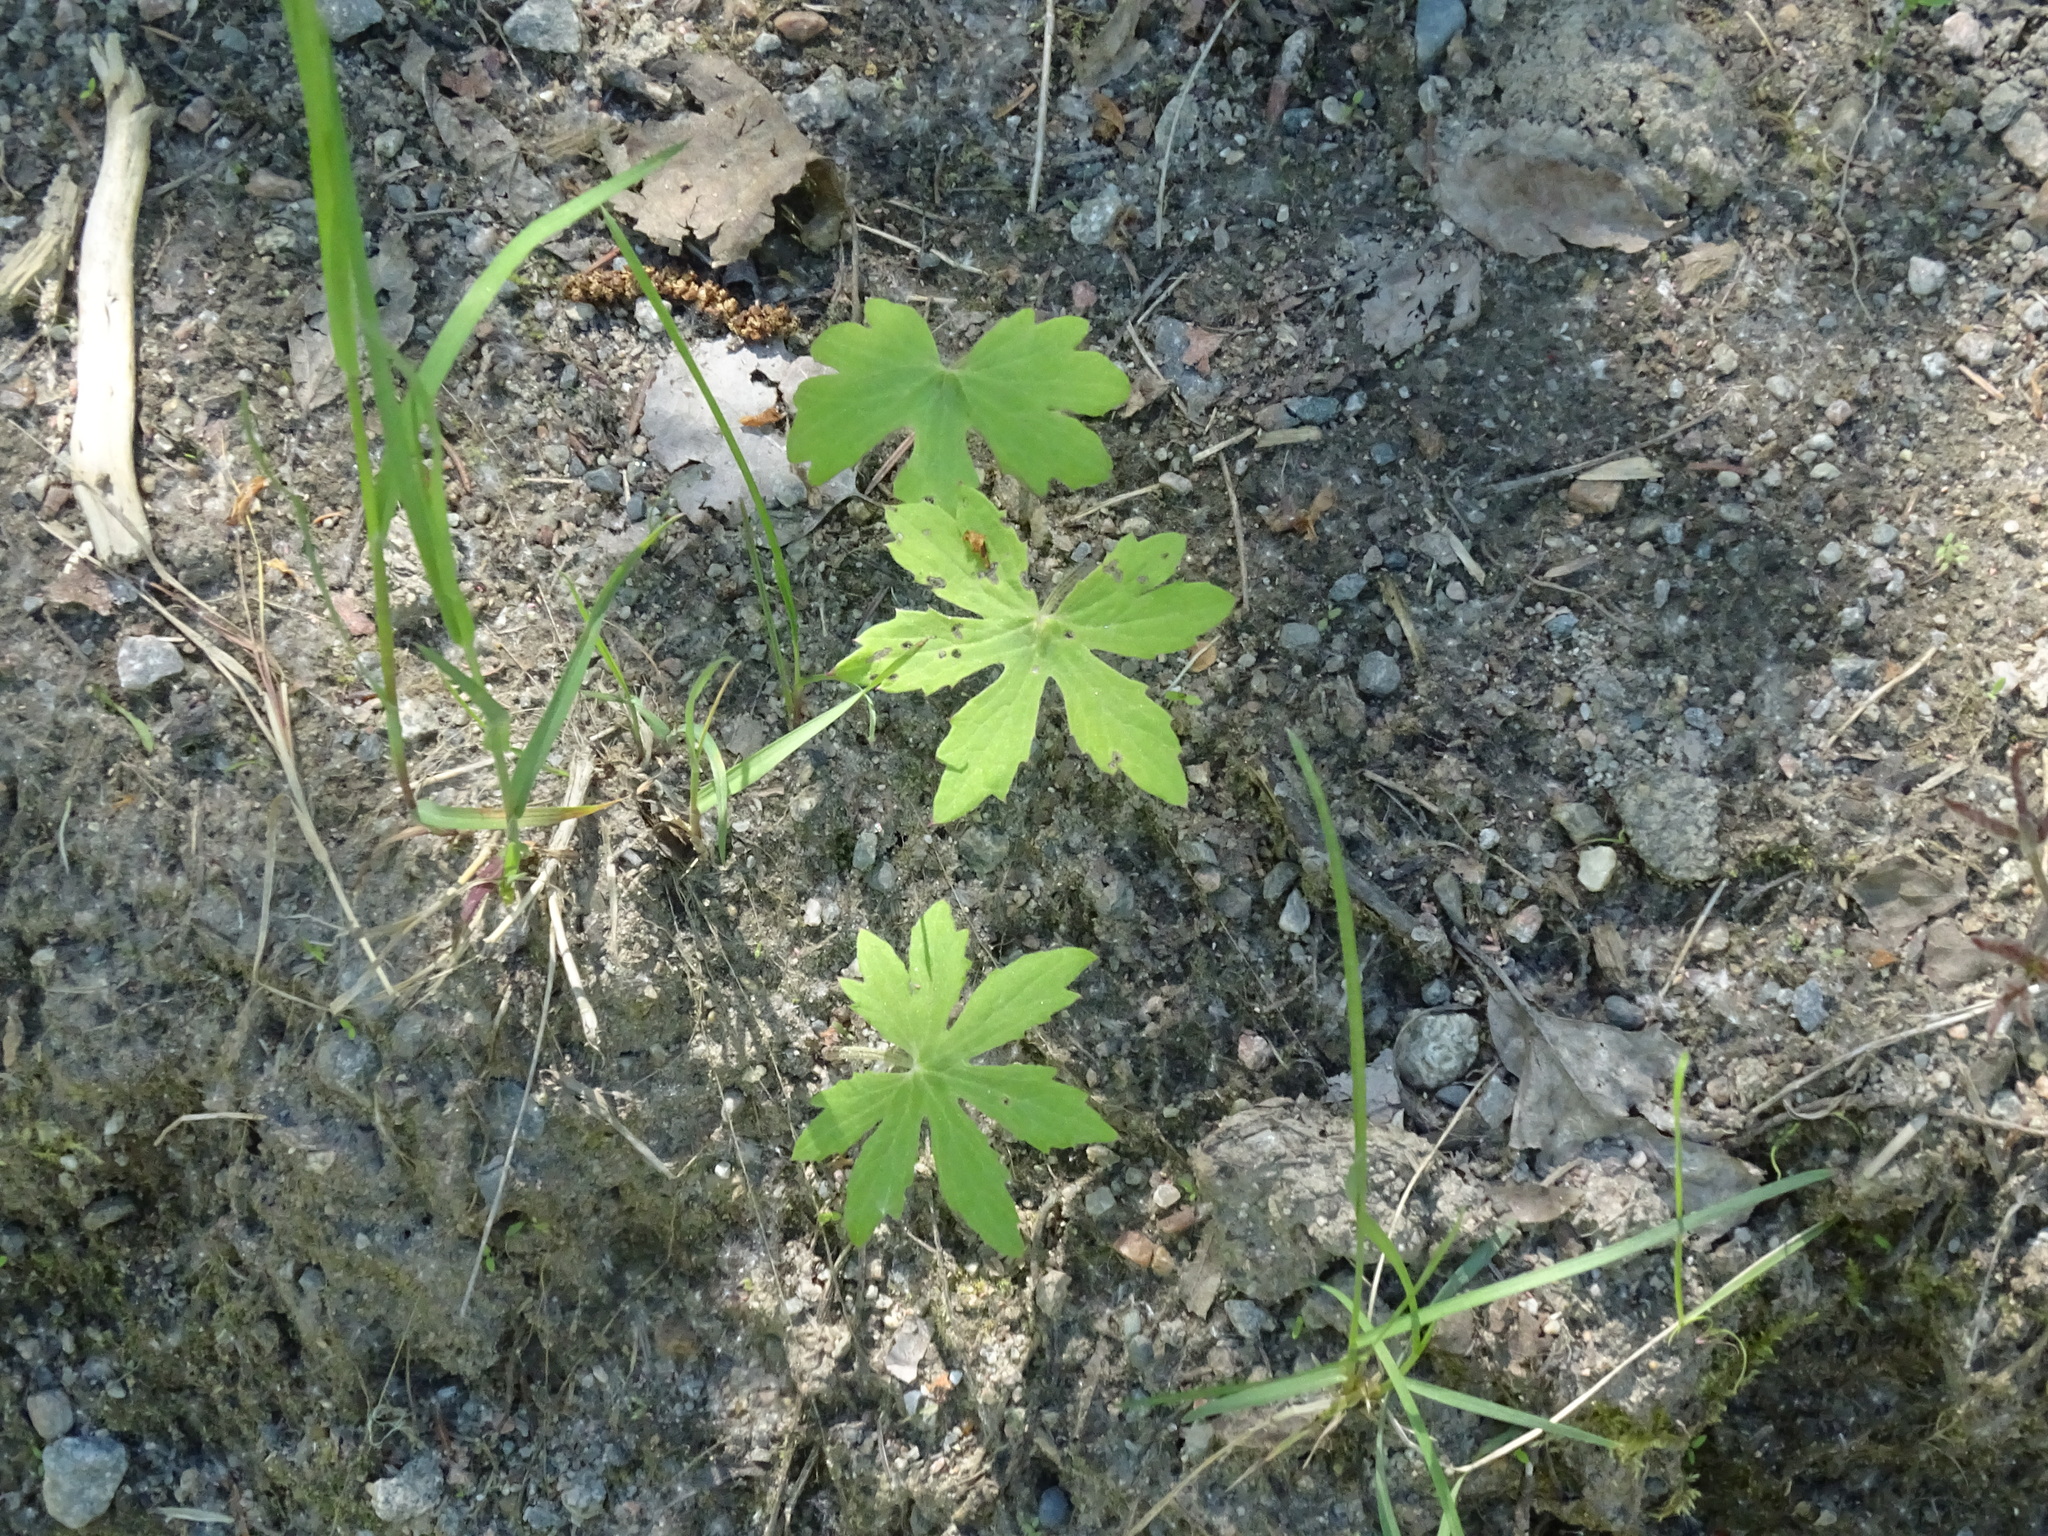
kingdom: Plantae
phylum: Tracheophyta
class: Magnoliopsida
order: Asterales
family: Asteraceae
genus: Petasites
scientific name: Petasites frigidus
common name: Arctic butterbur
